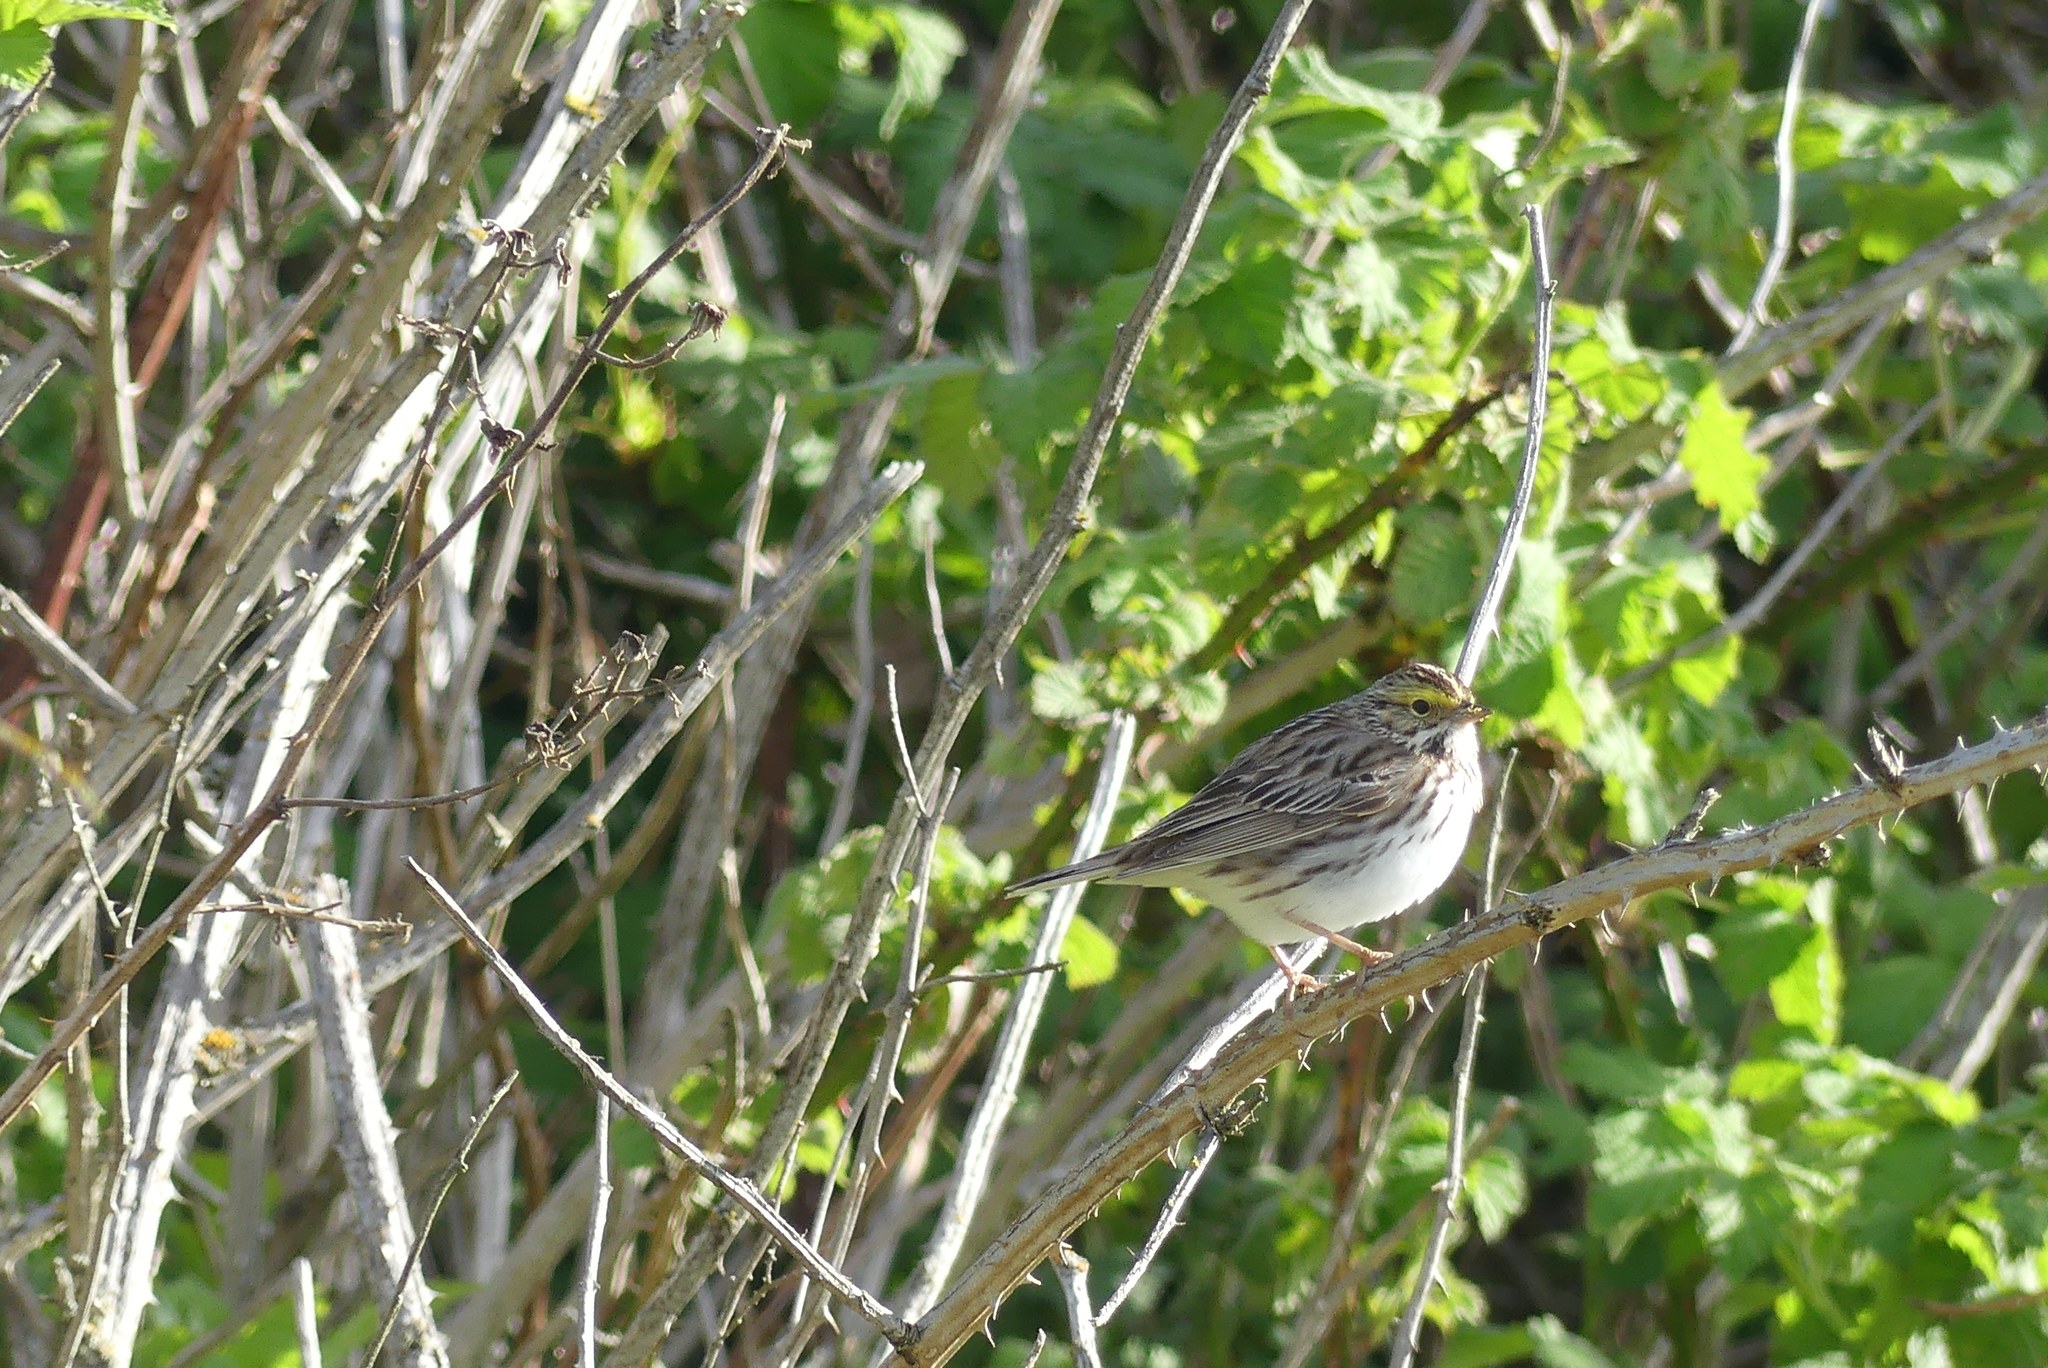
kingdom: Animalia
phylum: Chordata
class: Aves
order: Passeriformes
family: Passerellidae
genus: Passerculus
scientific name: Passerculus sandwichensis
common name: Savannah sparrow
